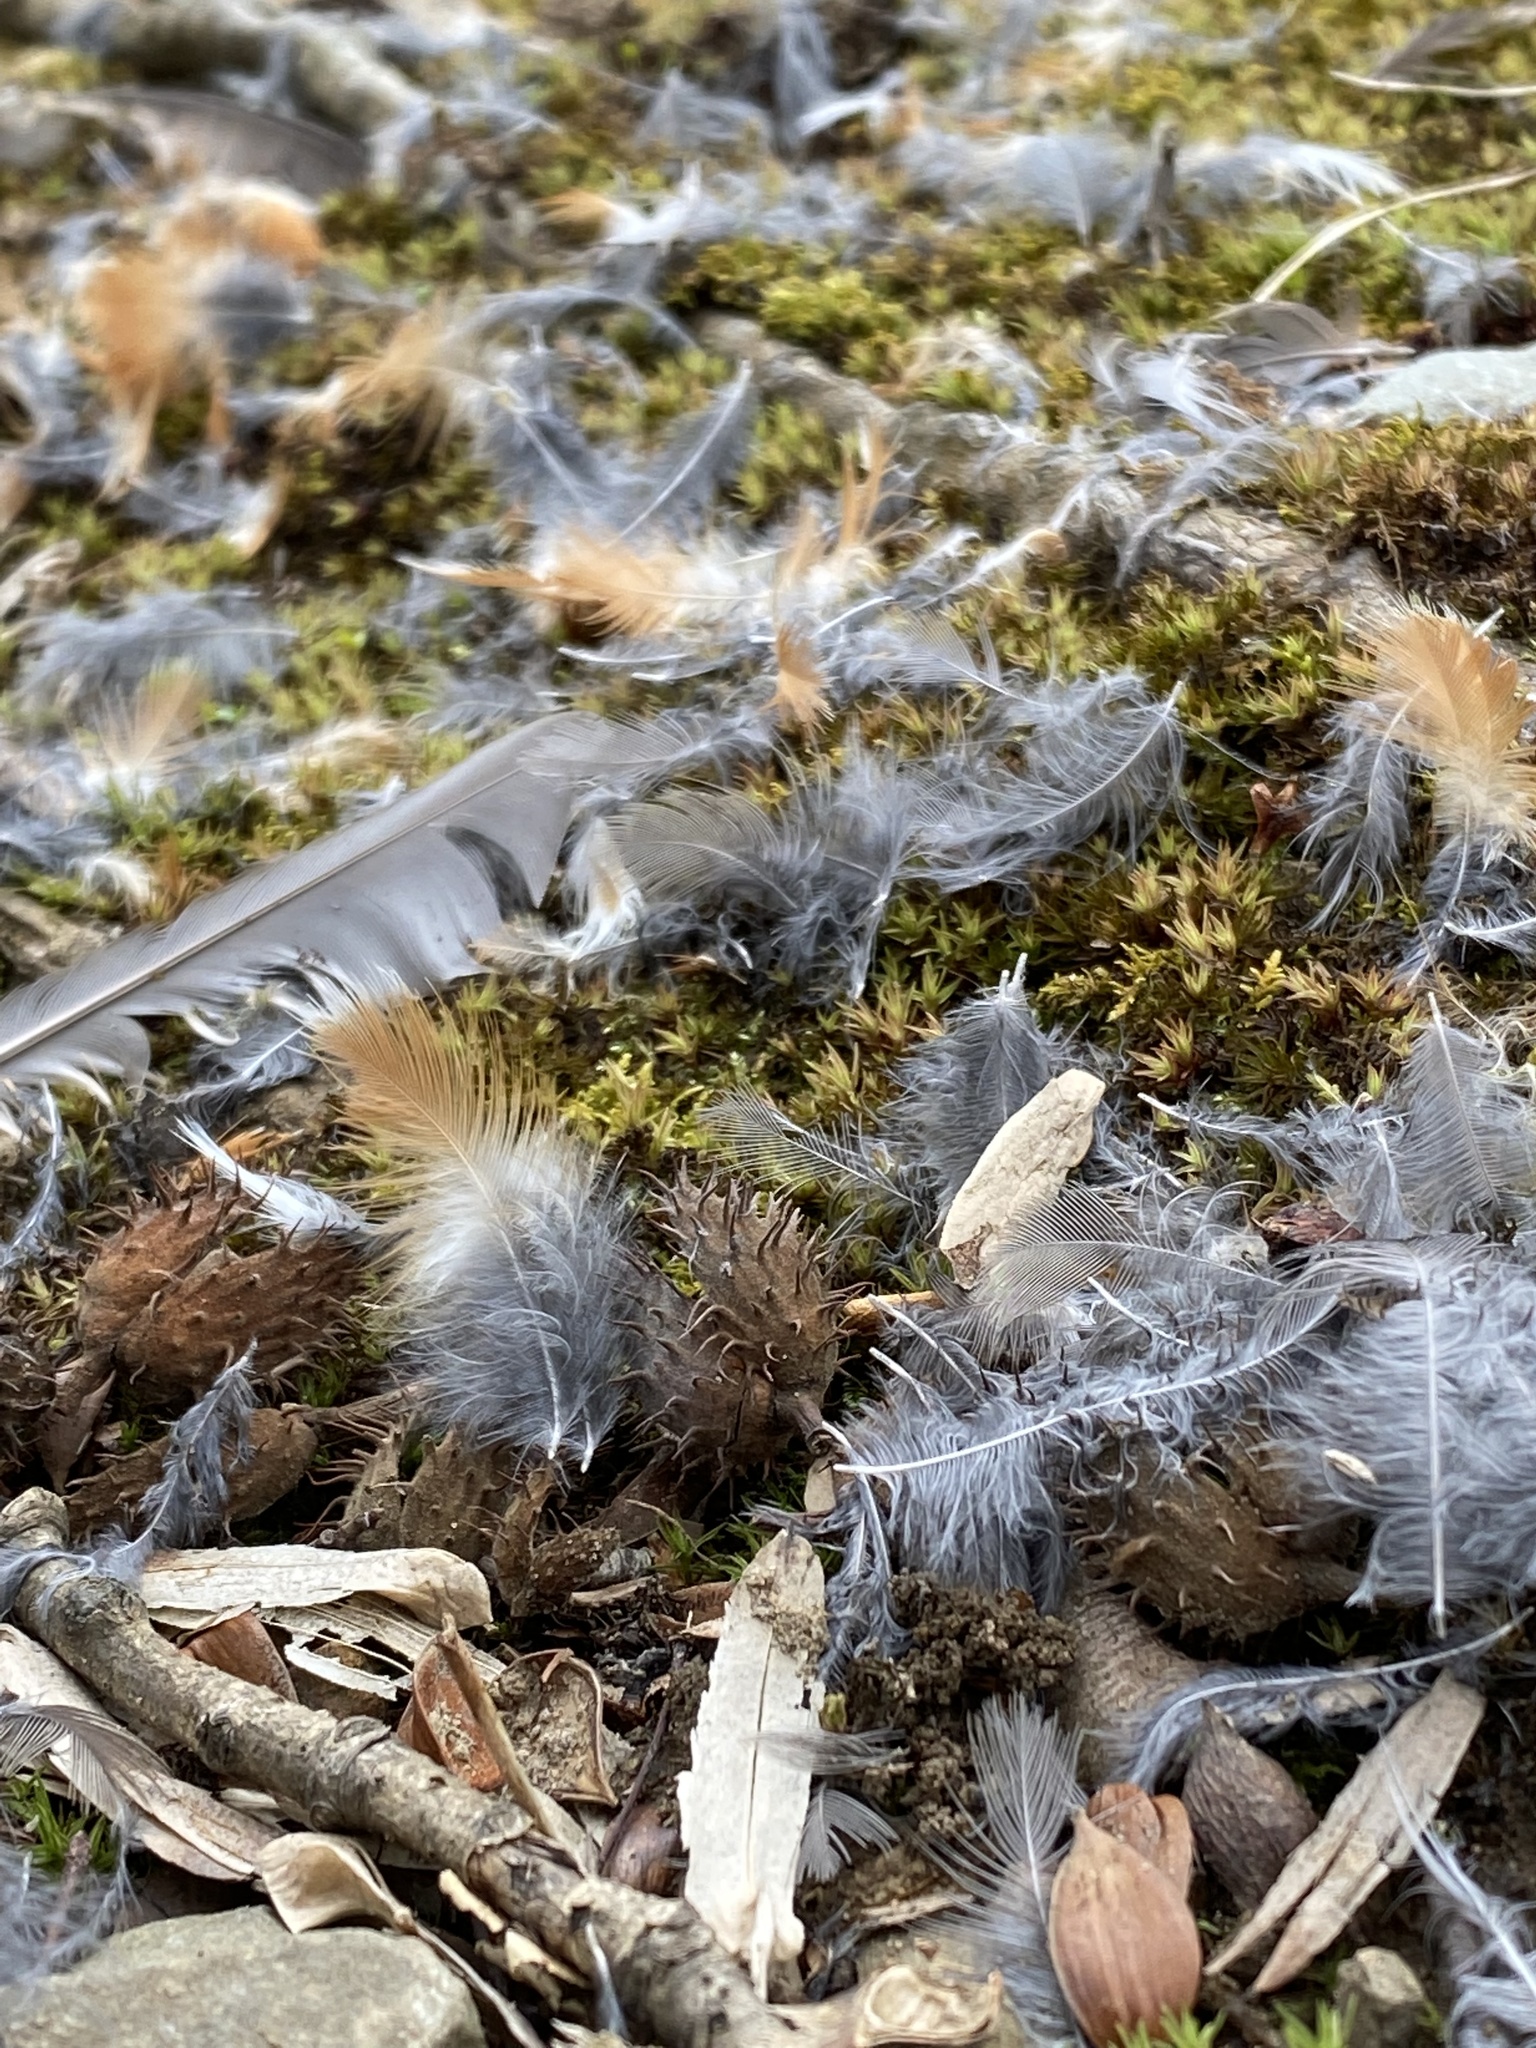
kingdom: Animalia
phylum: Chordata
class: Aves
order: Passeriformes
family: Turdidae
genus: Turdus
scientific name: Turdus migratorius
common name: American robin
